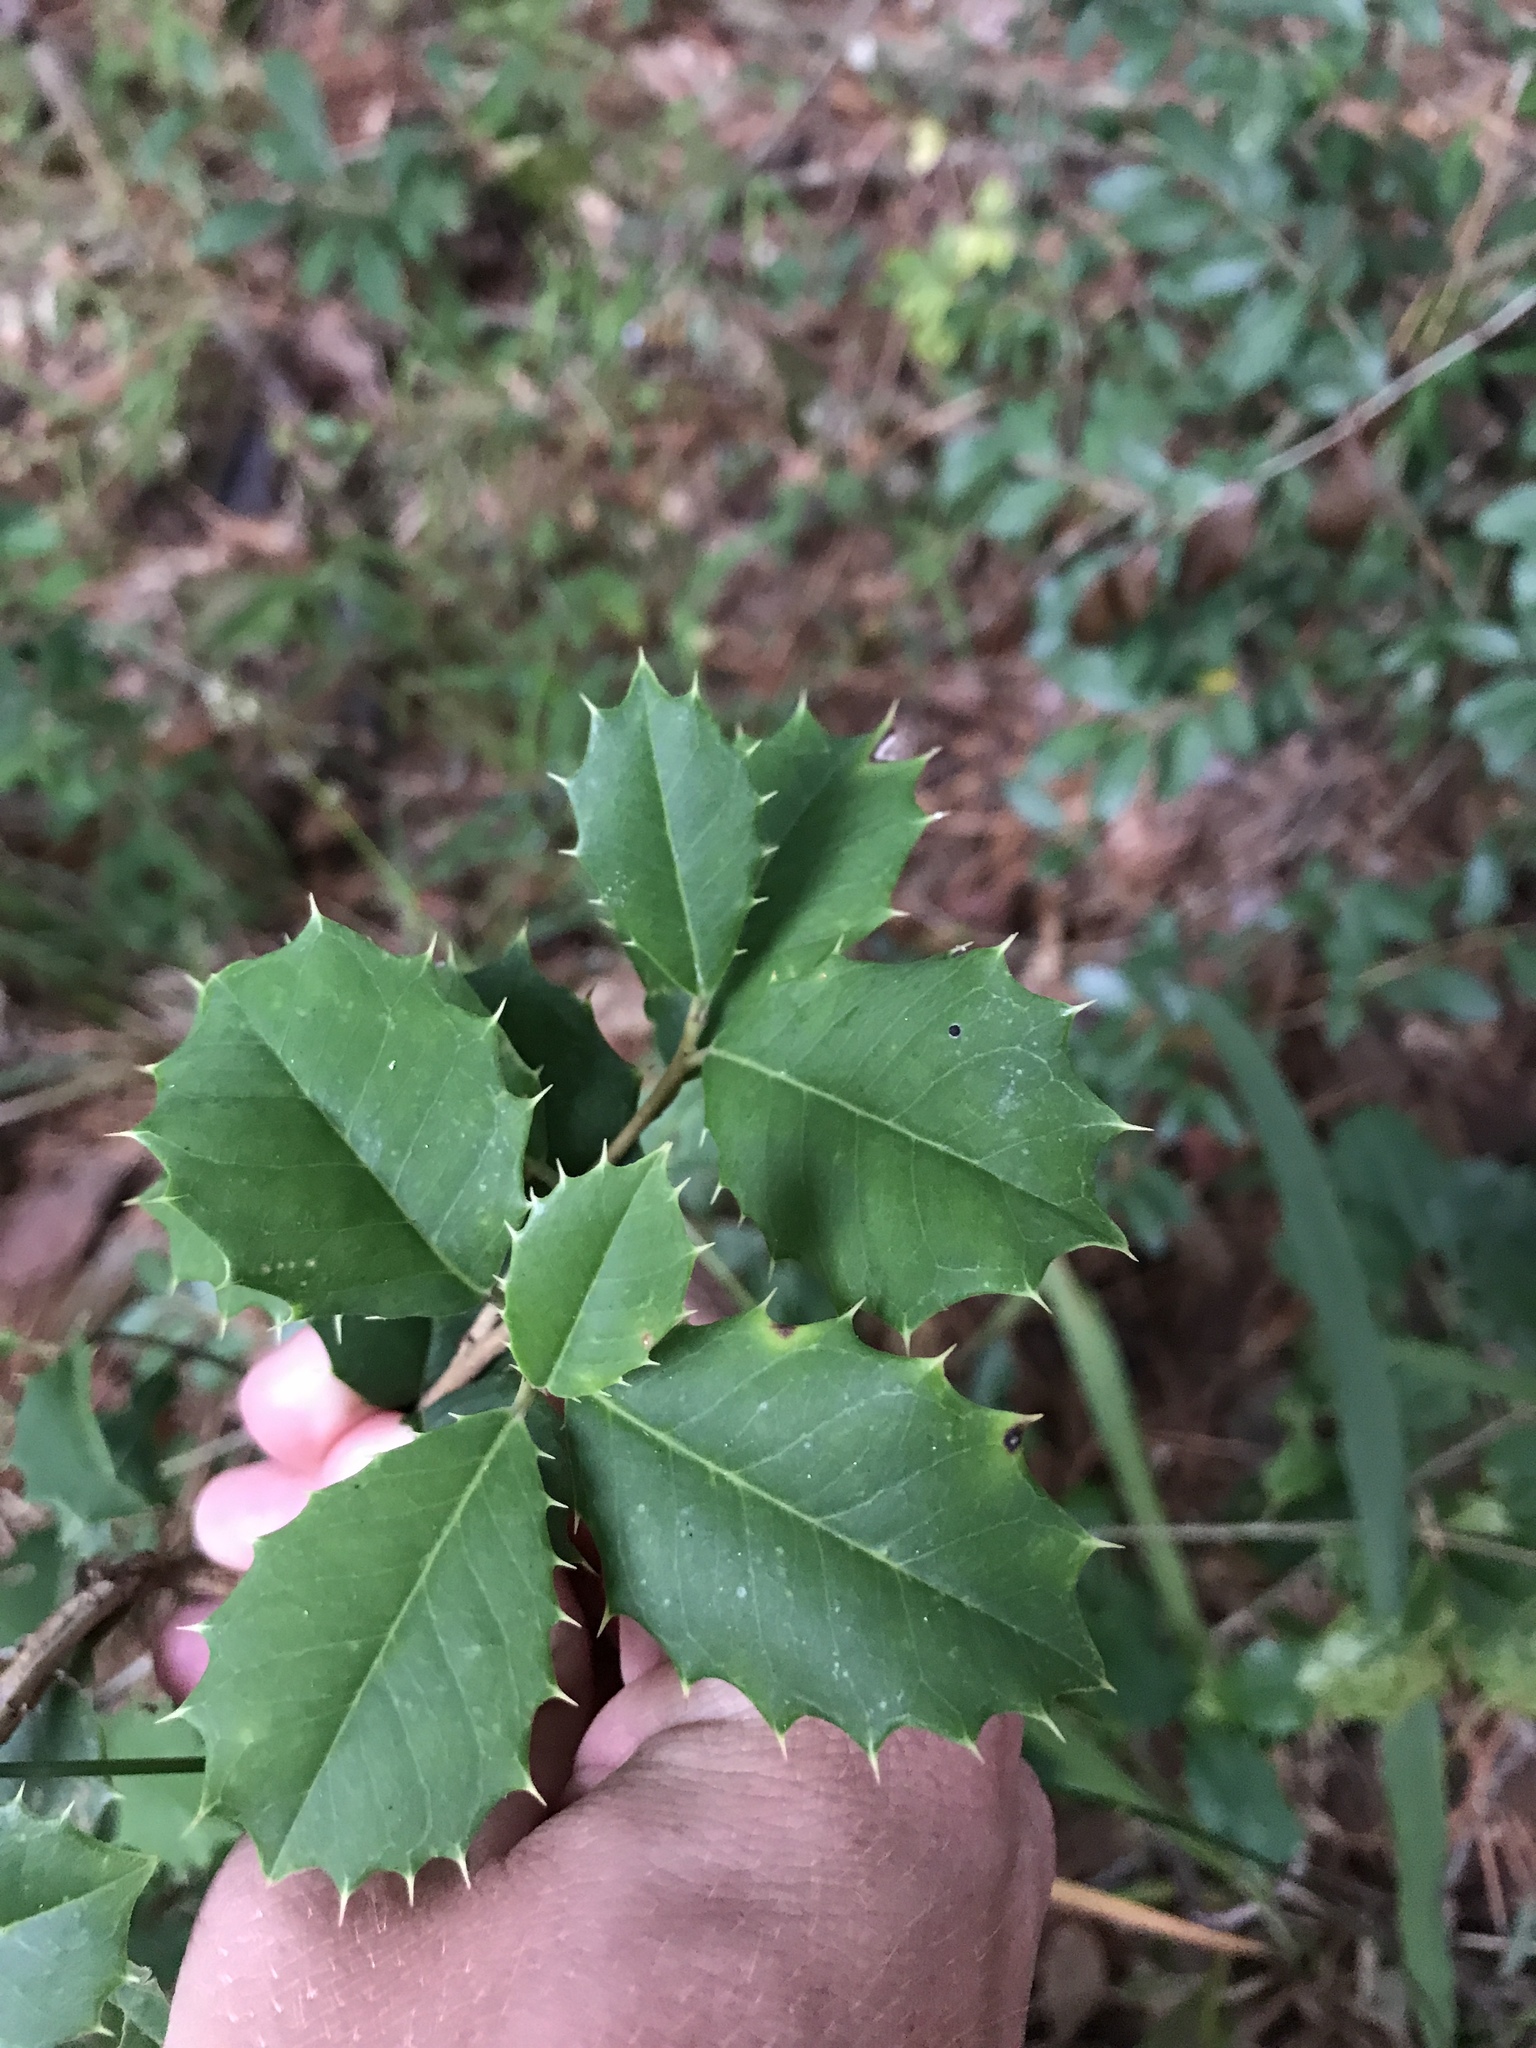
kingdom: Plantae
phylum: Tracheophyta
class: Magnoliopsida
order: Aquifoliales
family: Aquifoliaceae
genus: Ilex
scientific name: Ilex opaca
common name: American holly
